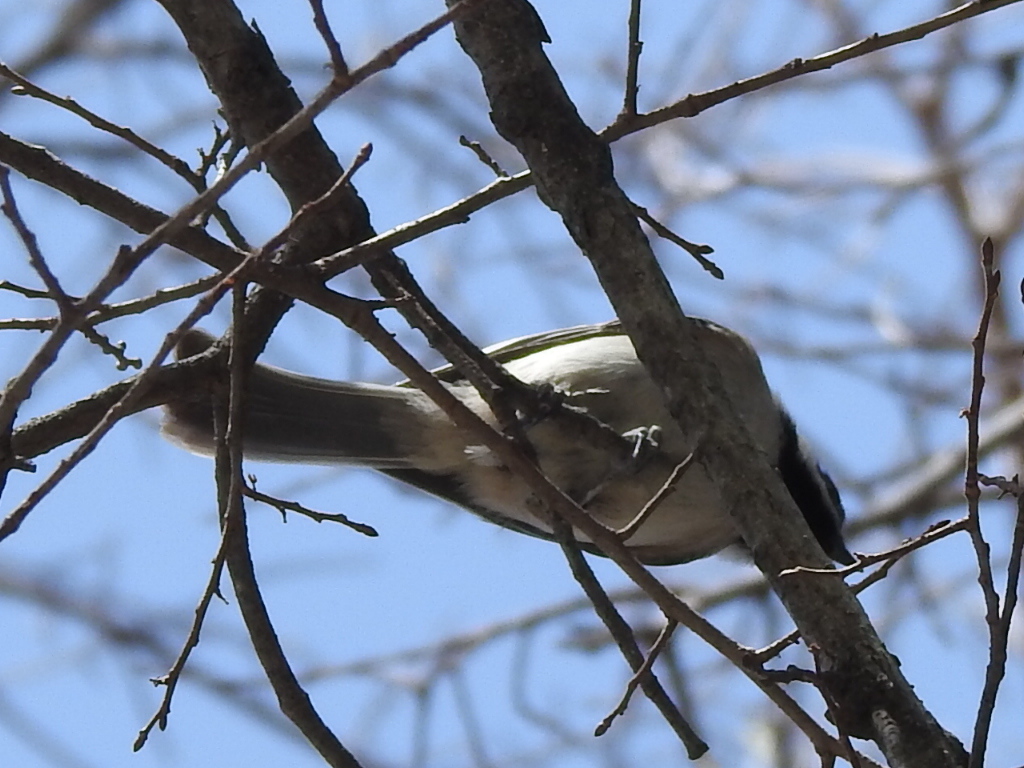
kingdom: Animalia
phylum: Chordata
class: Aves
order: Passeriformes
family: Paridae
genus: Poecile
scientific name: Poecile carolinensis
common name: Carolina chickadee
